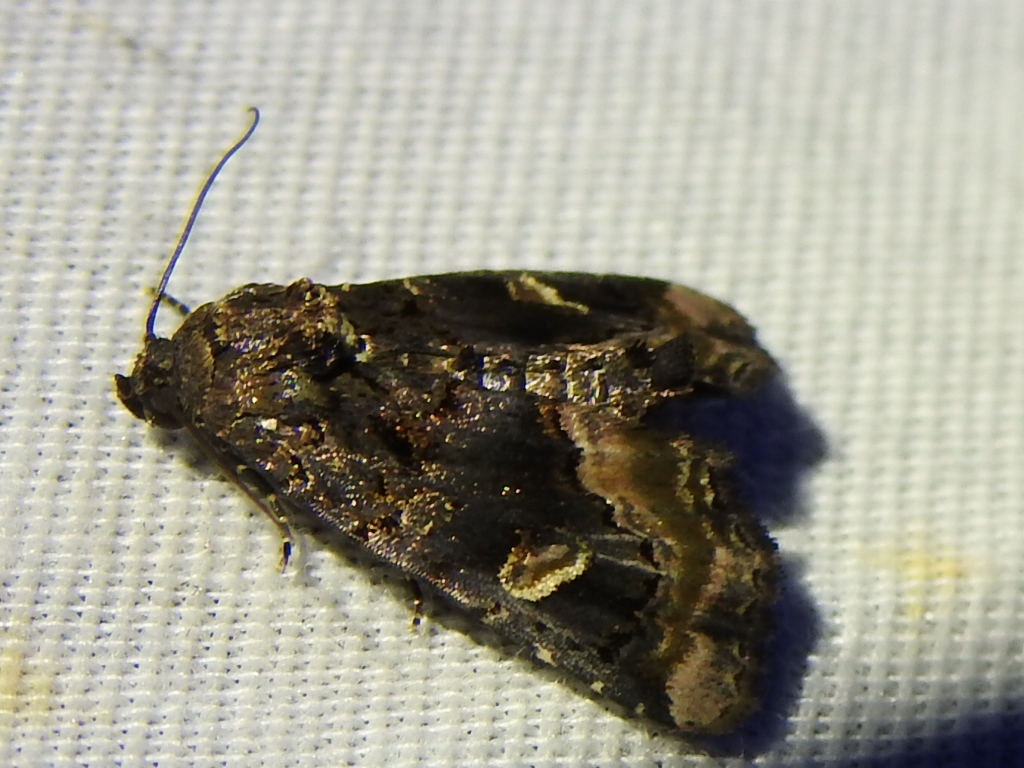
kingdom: Animalia
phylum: Arthropoda
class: Insecta
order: Lepidoptera
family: Noctuidae
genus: Homophoberia
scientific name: Homophoberia apicosa
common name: Black wedge-spot
